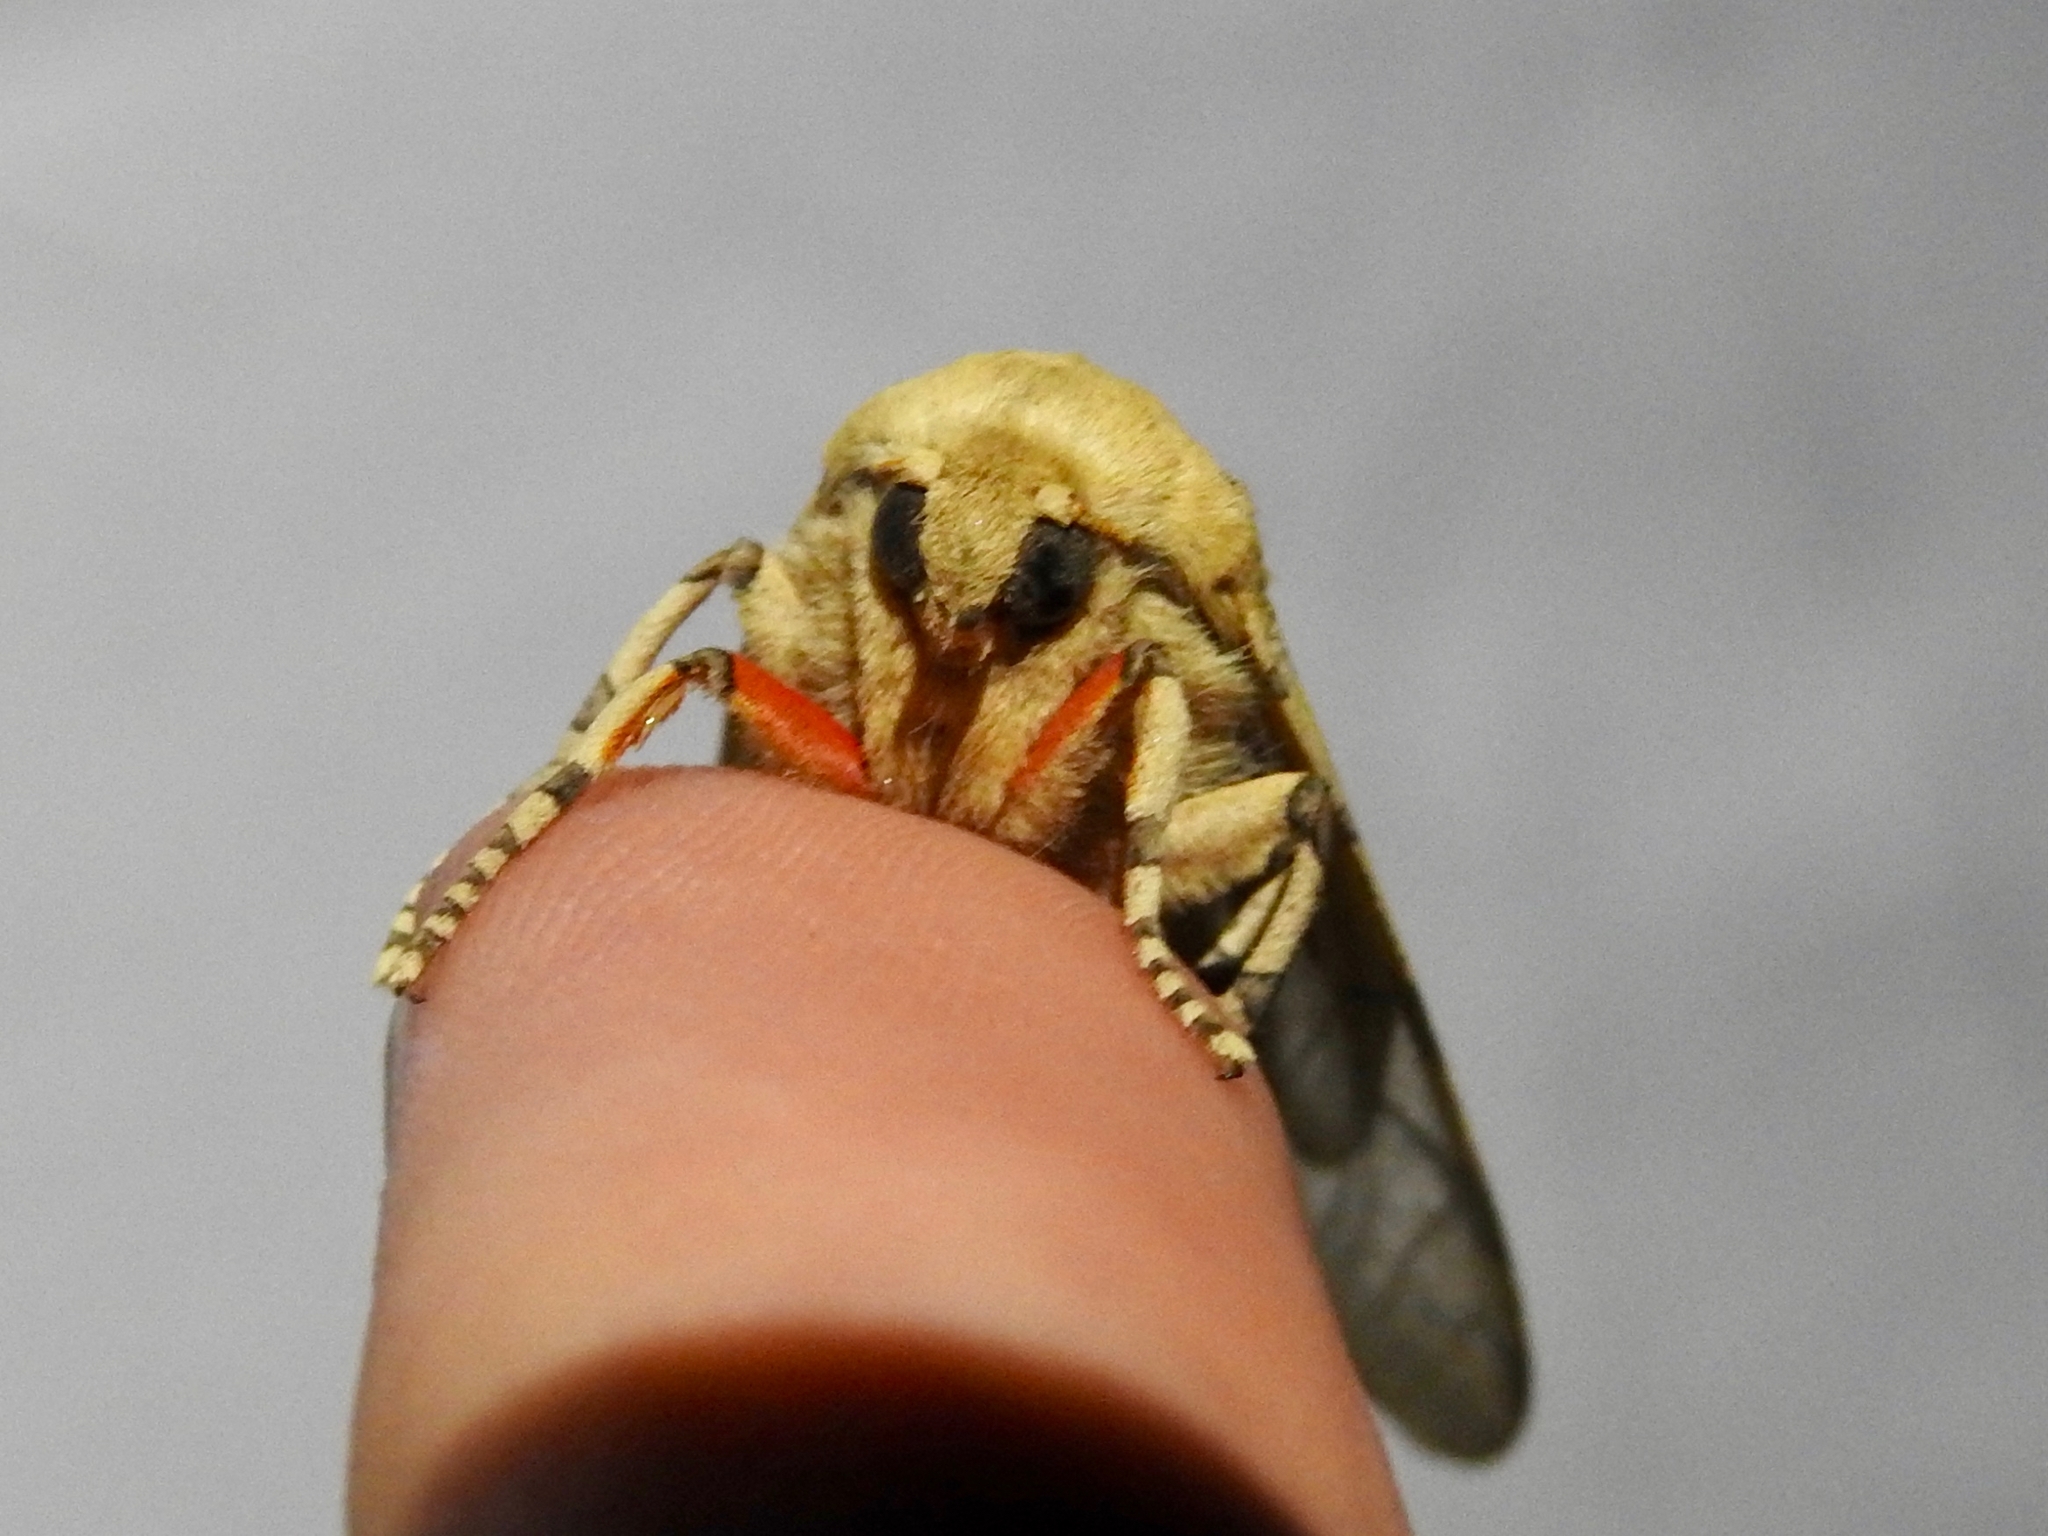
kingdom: Animalia
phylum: Arthropoda
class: Insecta
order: Lepidoptera
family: Erebidae
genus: Hemihyalea
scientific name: Hemihyalea edwardsii
